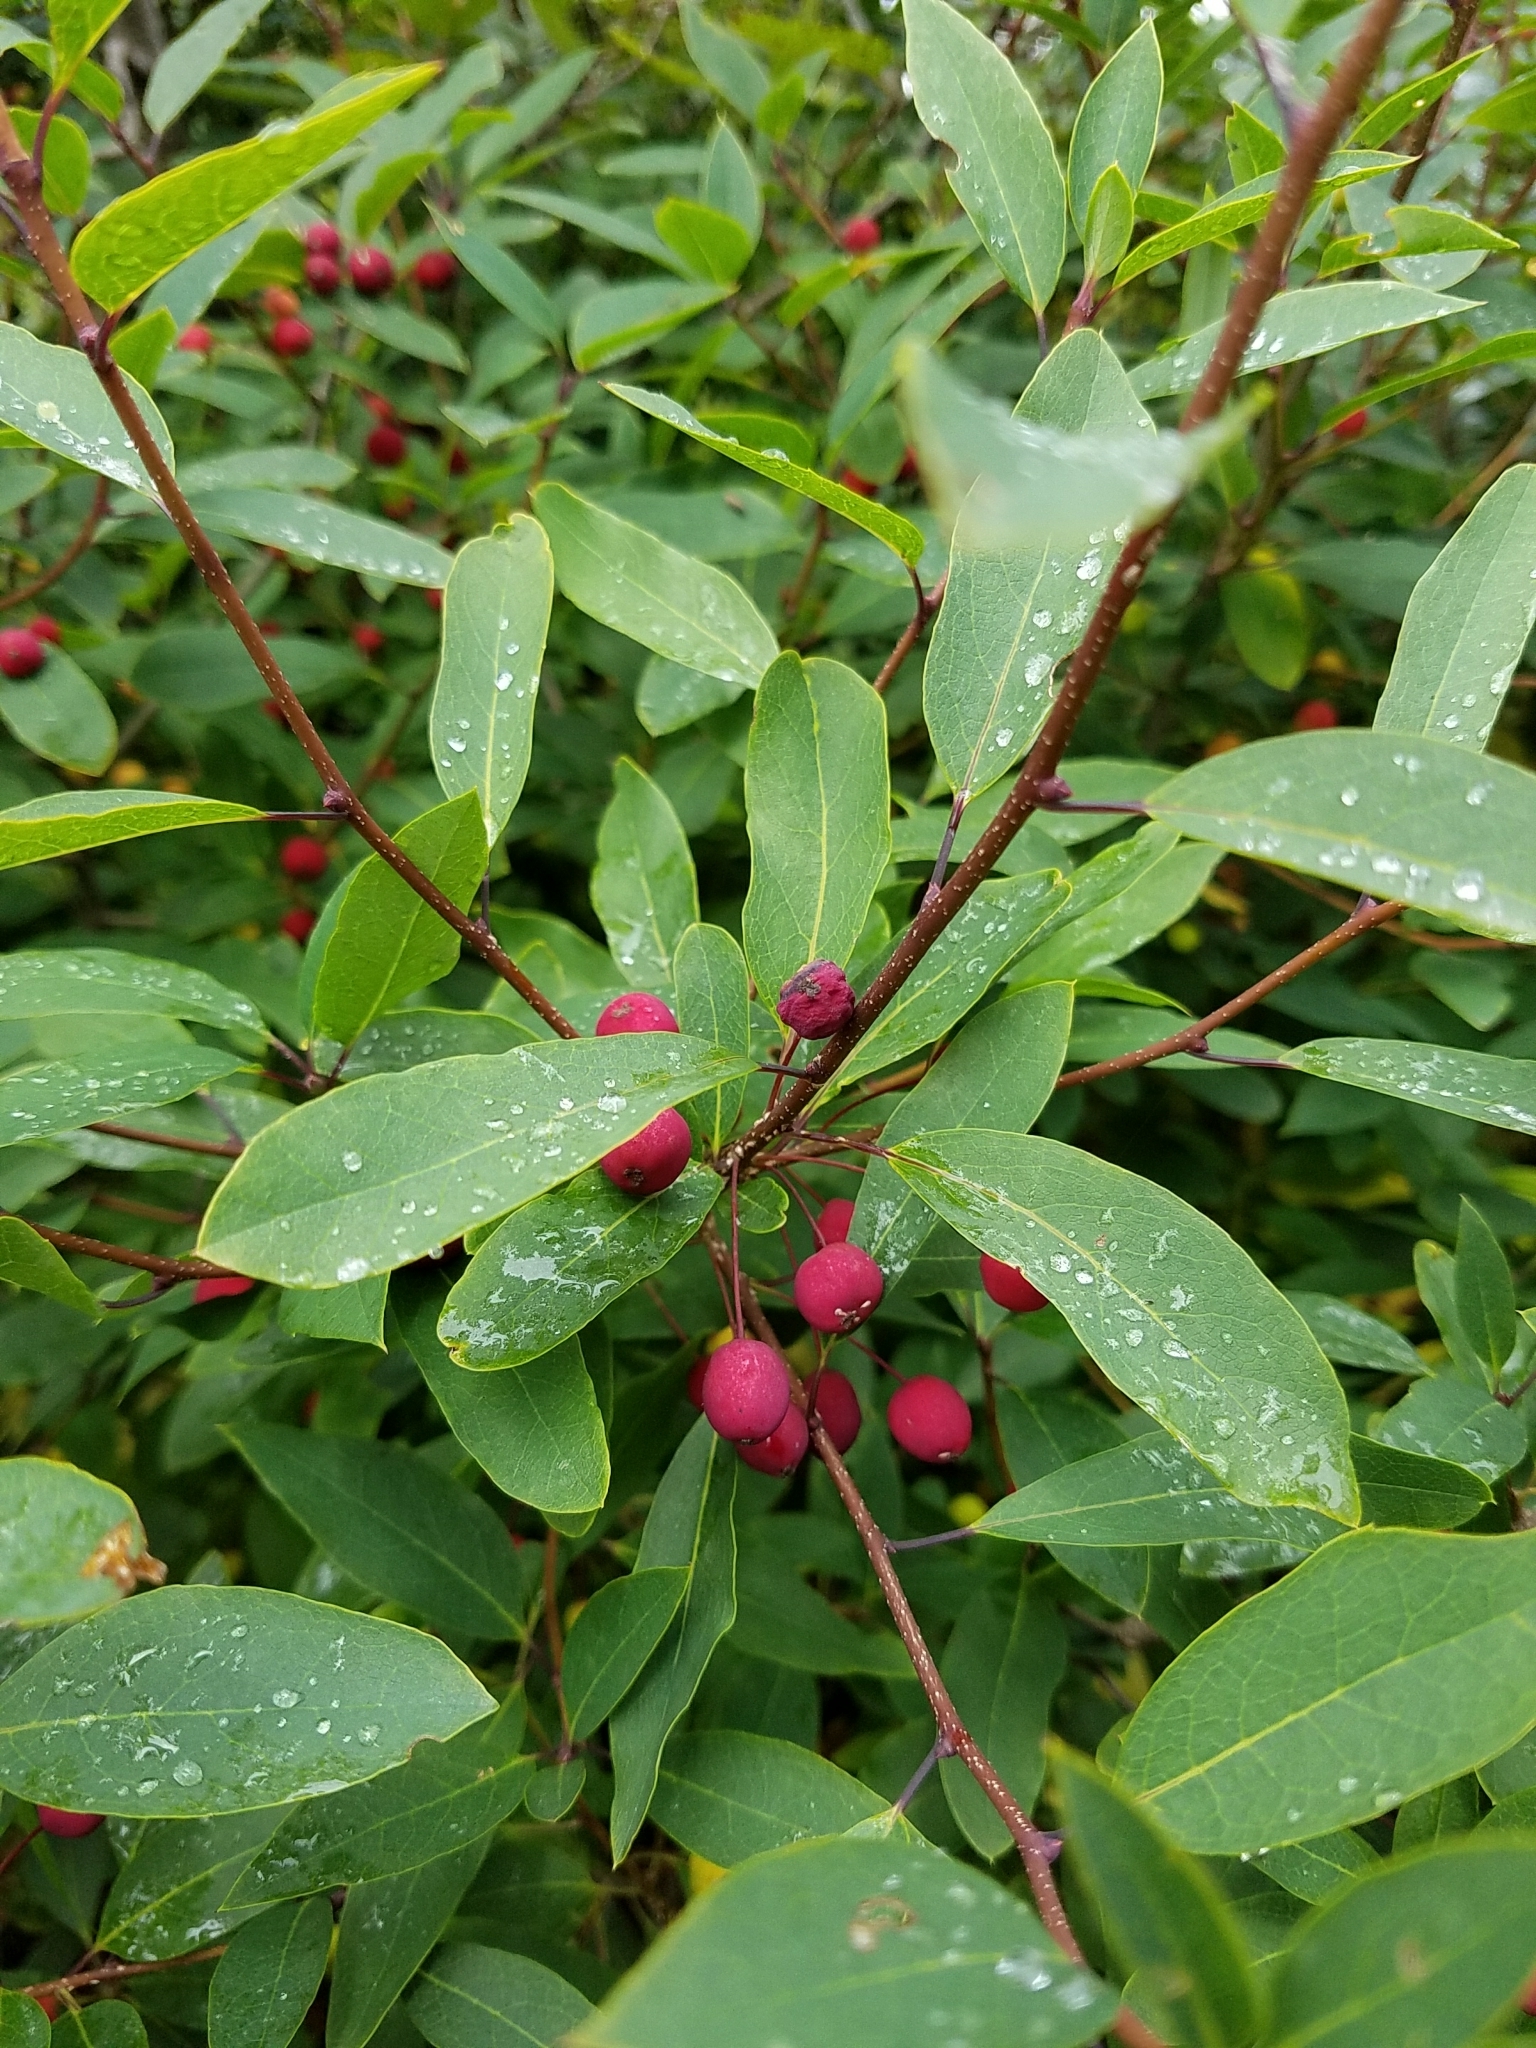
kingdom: Plantae
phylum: Tracheophyta
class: Magnoliopsida
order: Aquifoliales
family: Aquifoliaceae
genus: Ilex
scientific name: Ilex mucronata
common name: Catberry
